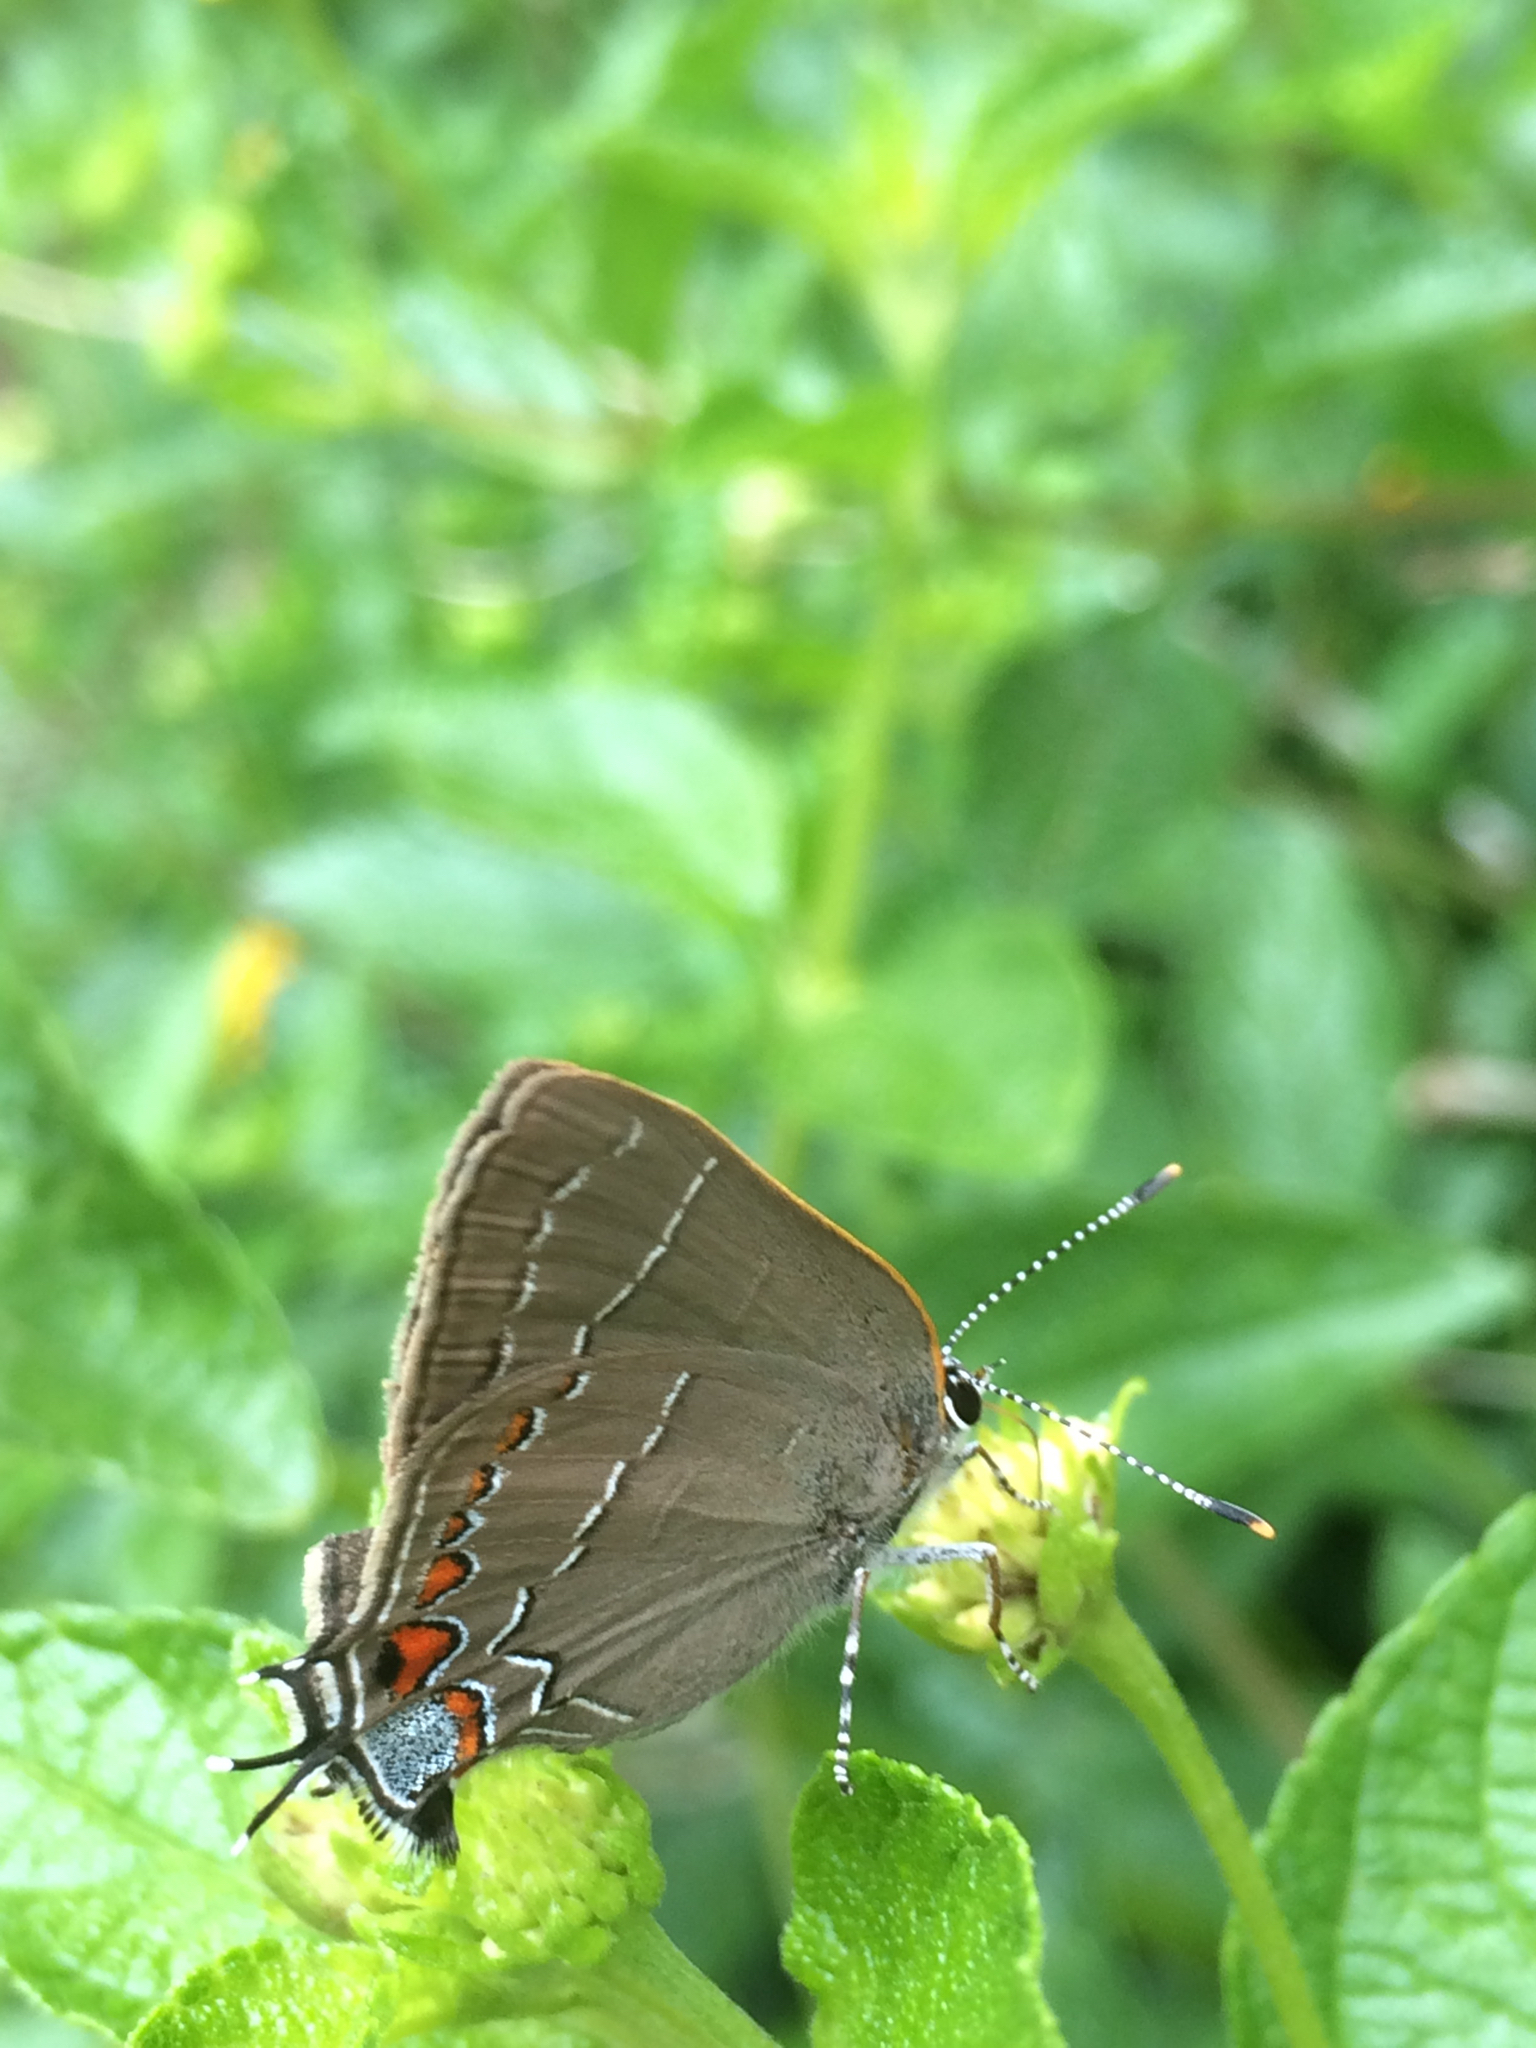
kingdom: Animalia
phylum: Arthropoda
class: Insecta
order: Lepidoptera
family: Lycaenidae
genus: Fixsenia
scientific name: Fixsenia favonius
